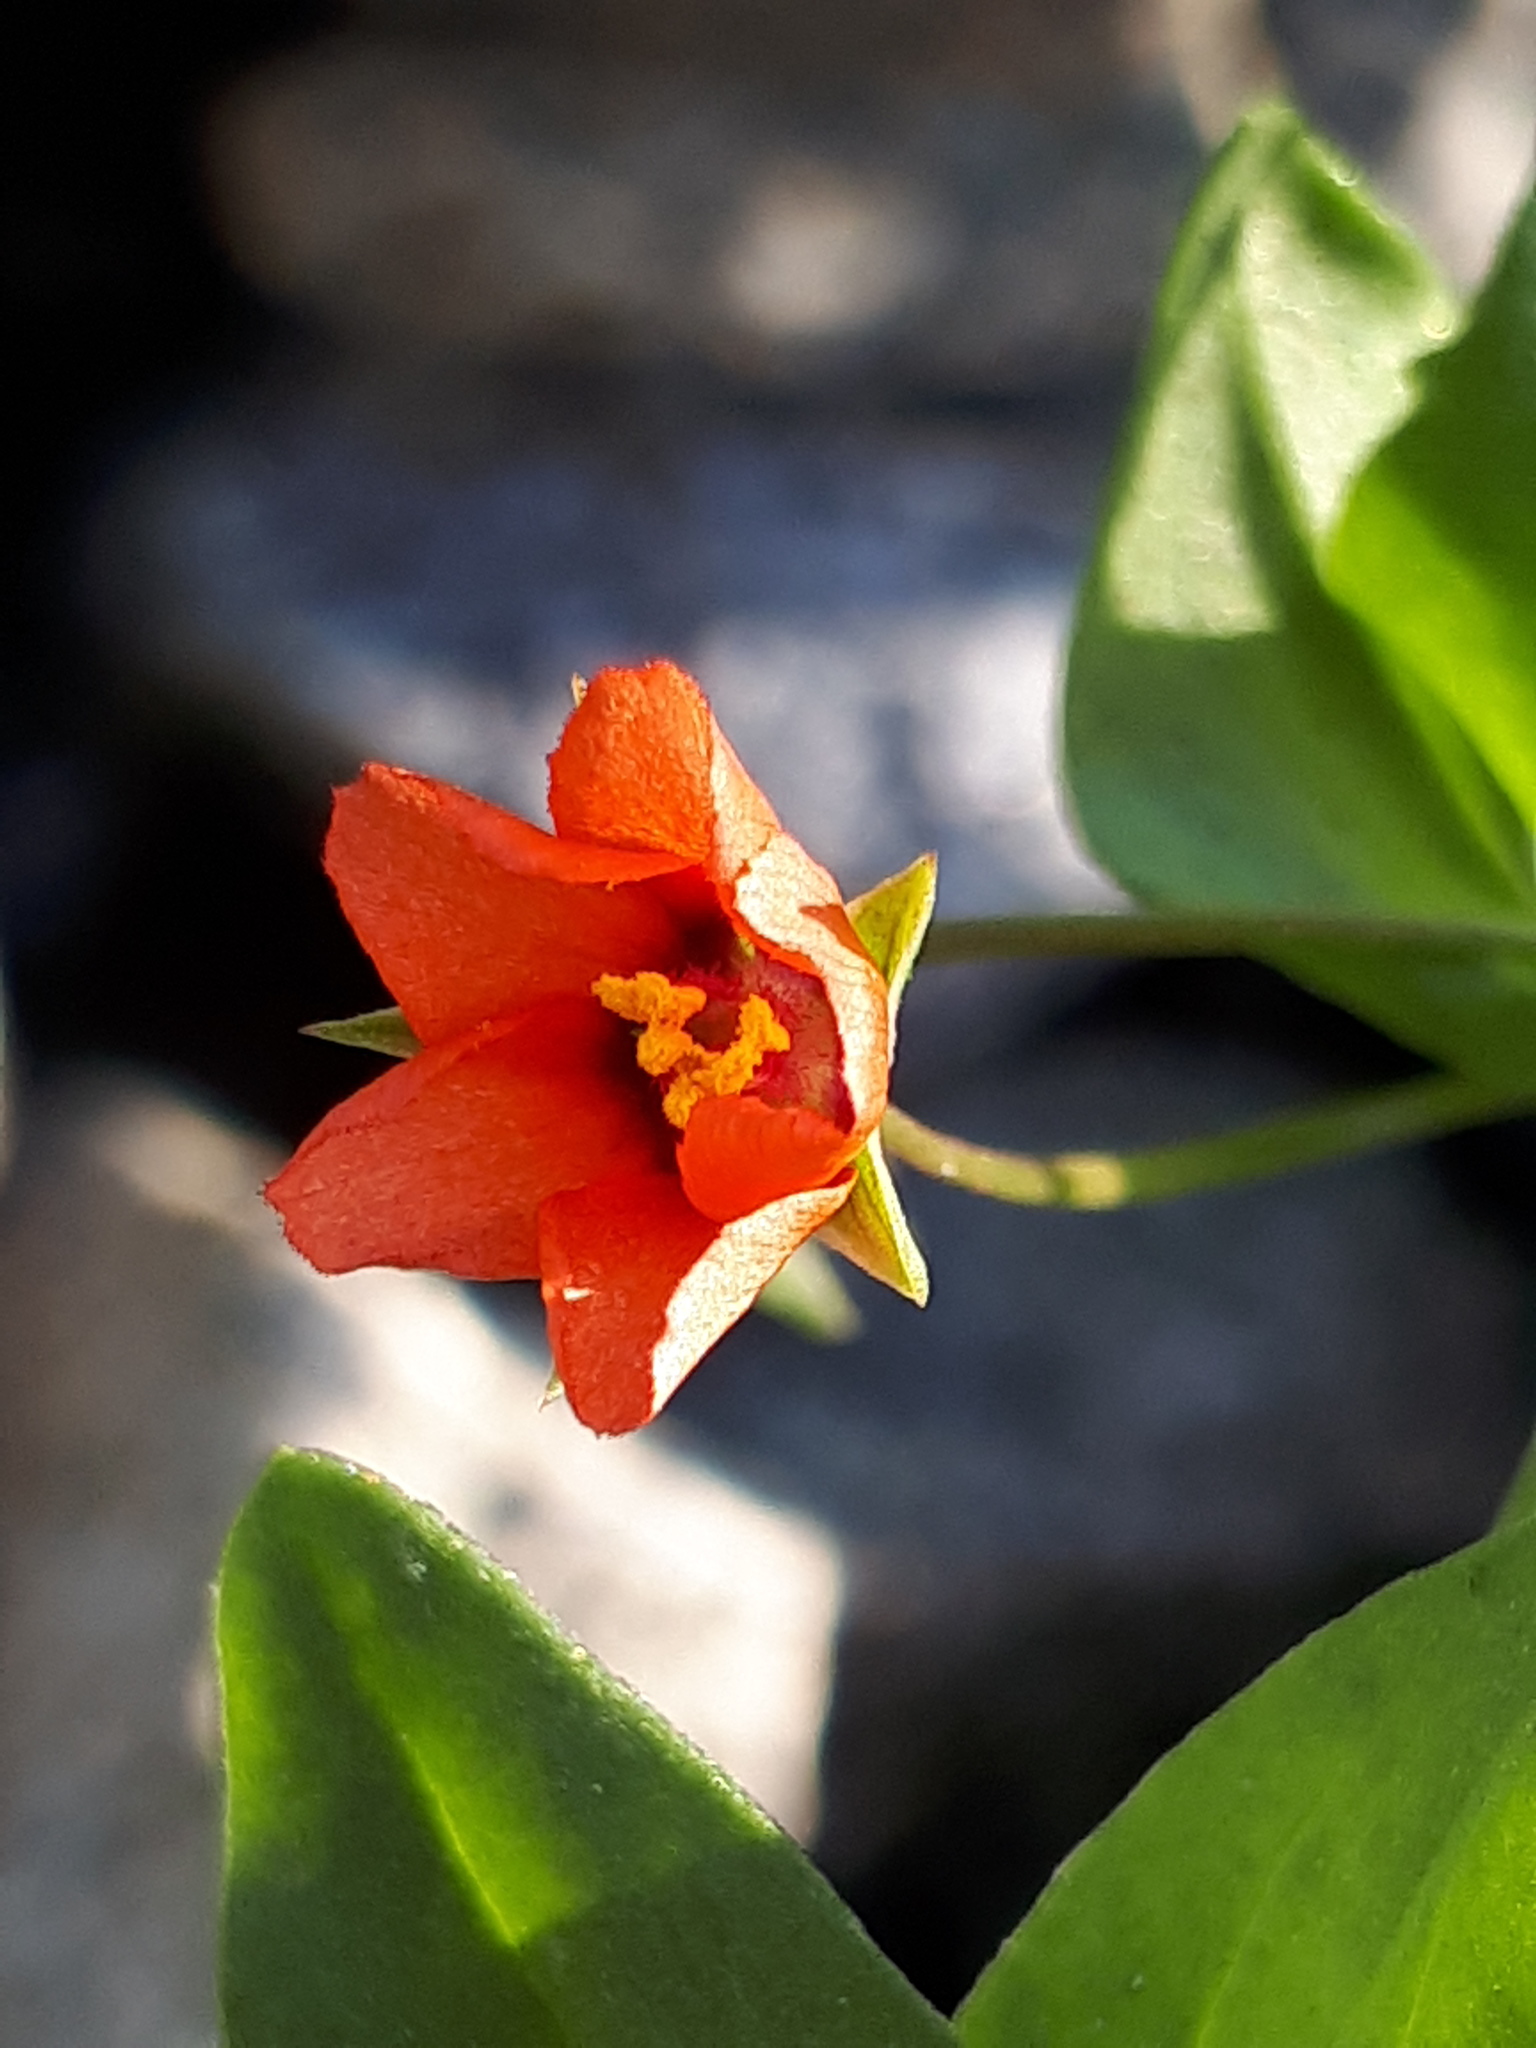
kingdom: Plantae
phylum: Tracheophyta
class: Magnoliopsida
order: Ericales
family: Primulaceae
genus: Lysimachia
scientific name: Lysimachia arvensis
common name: Scarlet pimpernel
